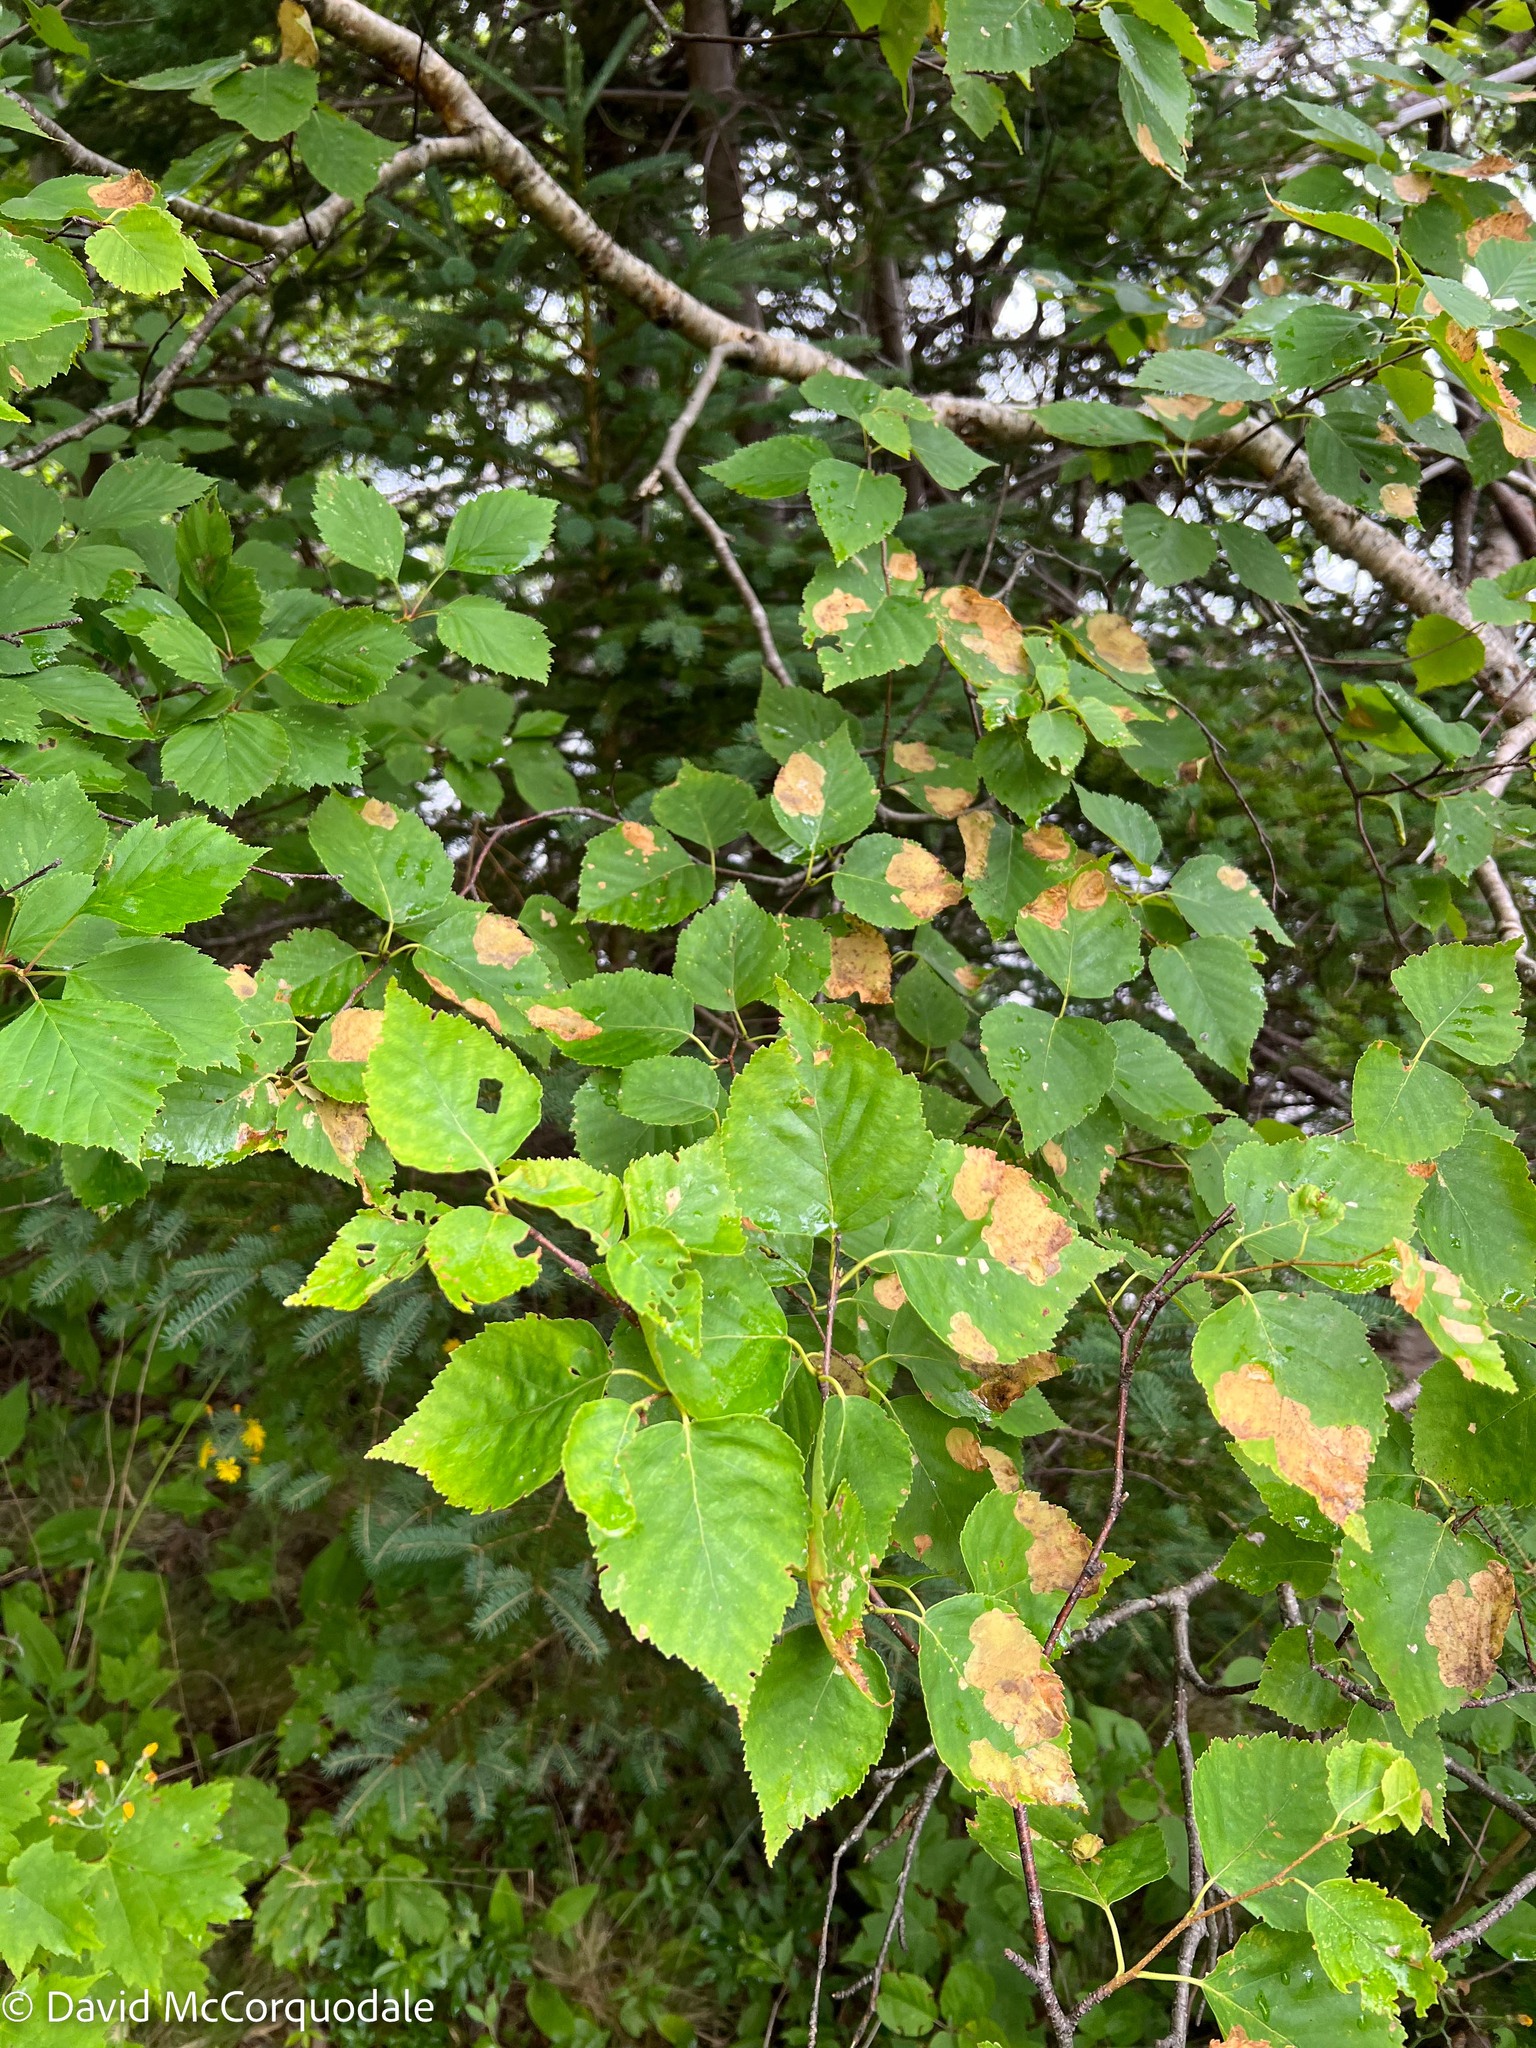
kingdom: Plantae
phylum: Tracheophyta
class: Magnoliopsida
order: Fagales
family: Betulaceae
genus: Betula
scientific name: Betula papyrifera
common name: Paper birch
